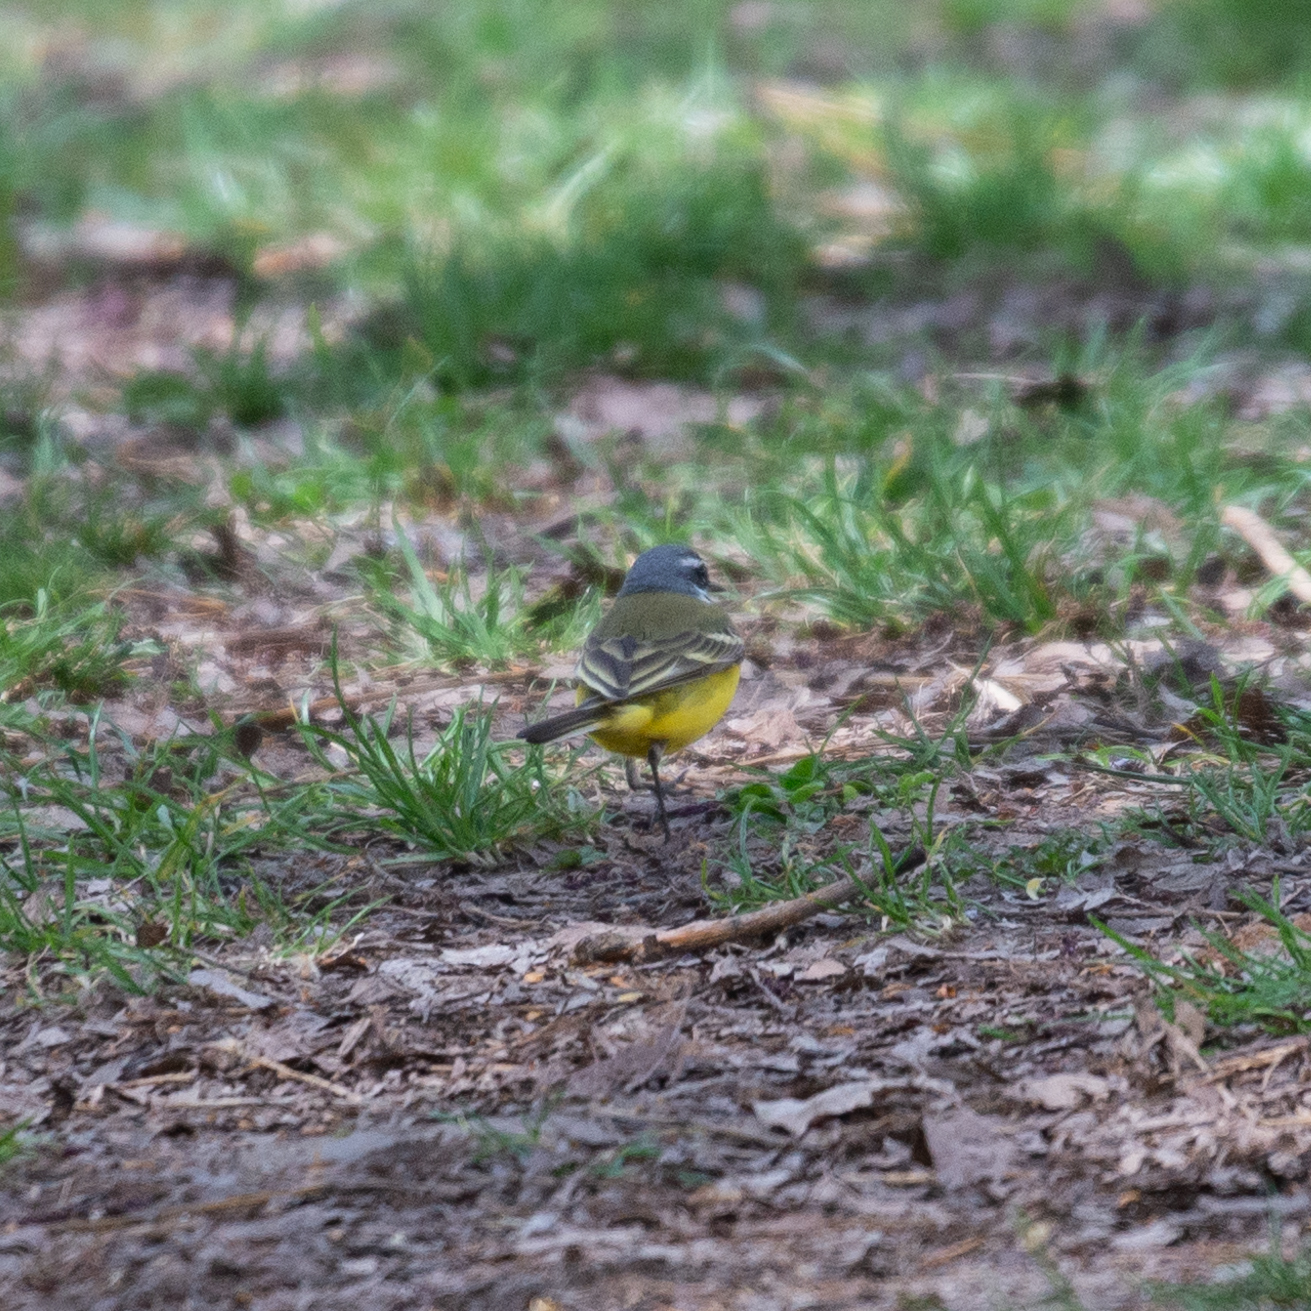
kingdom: Animalia
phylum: Chordata
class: Aves
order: Passeriformes
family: Motacillidae
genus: Motacilla
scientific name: Motacilla flava
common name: Western yellow wagtail
